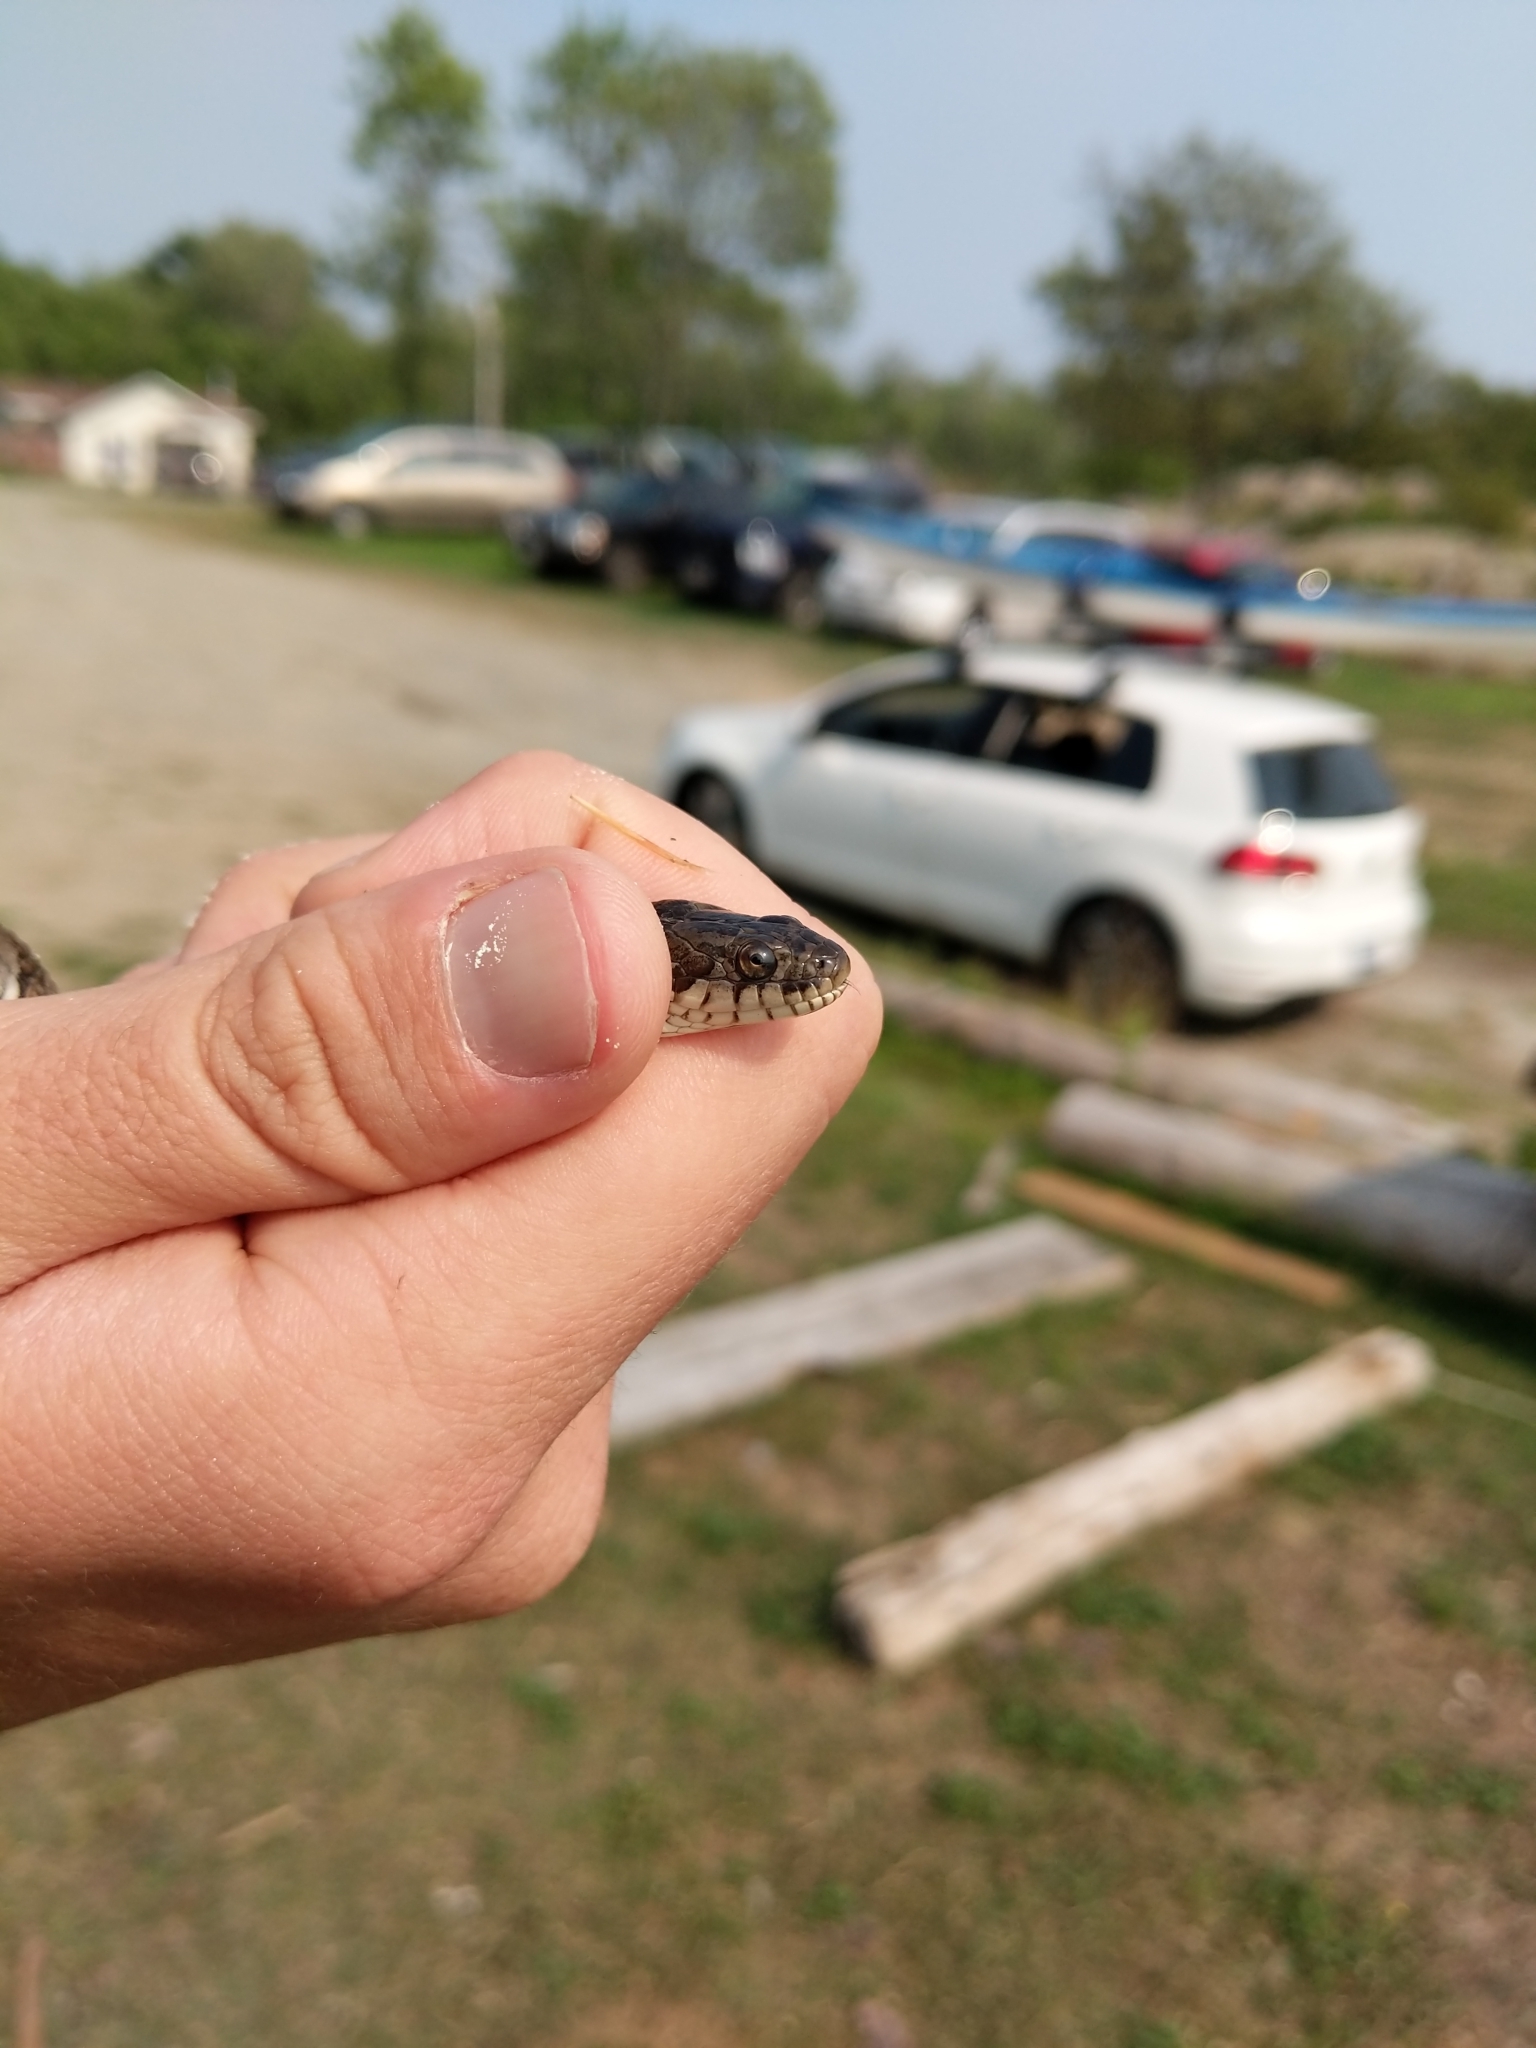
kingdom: Animalia
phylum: Chordata
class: Squamata
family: Colubridae
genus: Nerodia
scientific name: Nerodia sipedon
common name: Northern water snake
